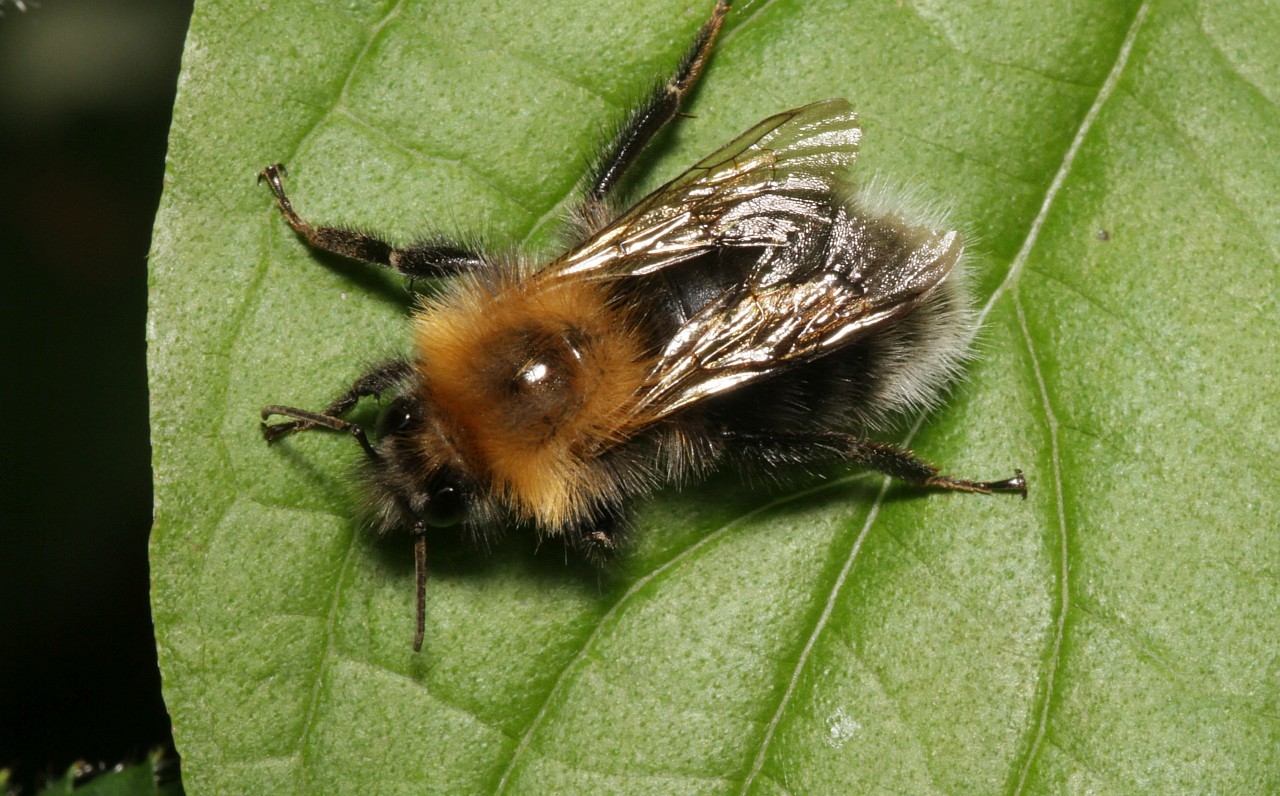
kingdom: Animalia
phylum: Arthropoda
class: Insecta
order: Hymenoptera
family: Apidae
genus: Bombus
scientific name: Bombus hypnorum
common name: New garden bumblebee
